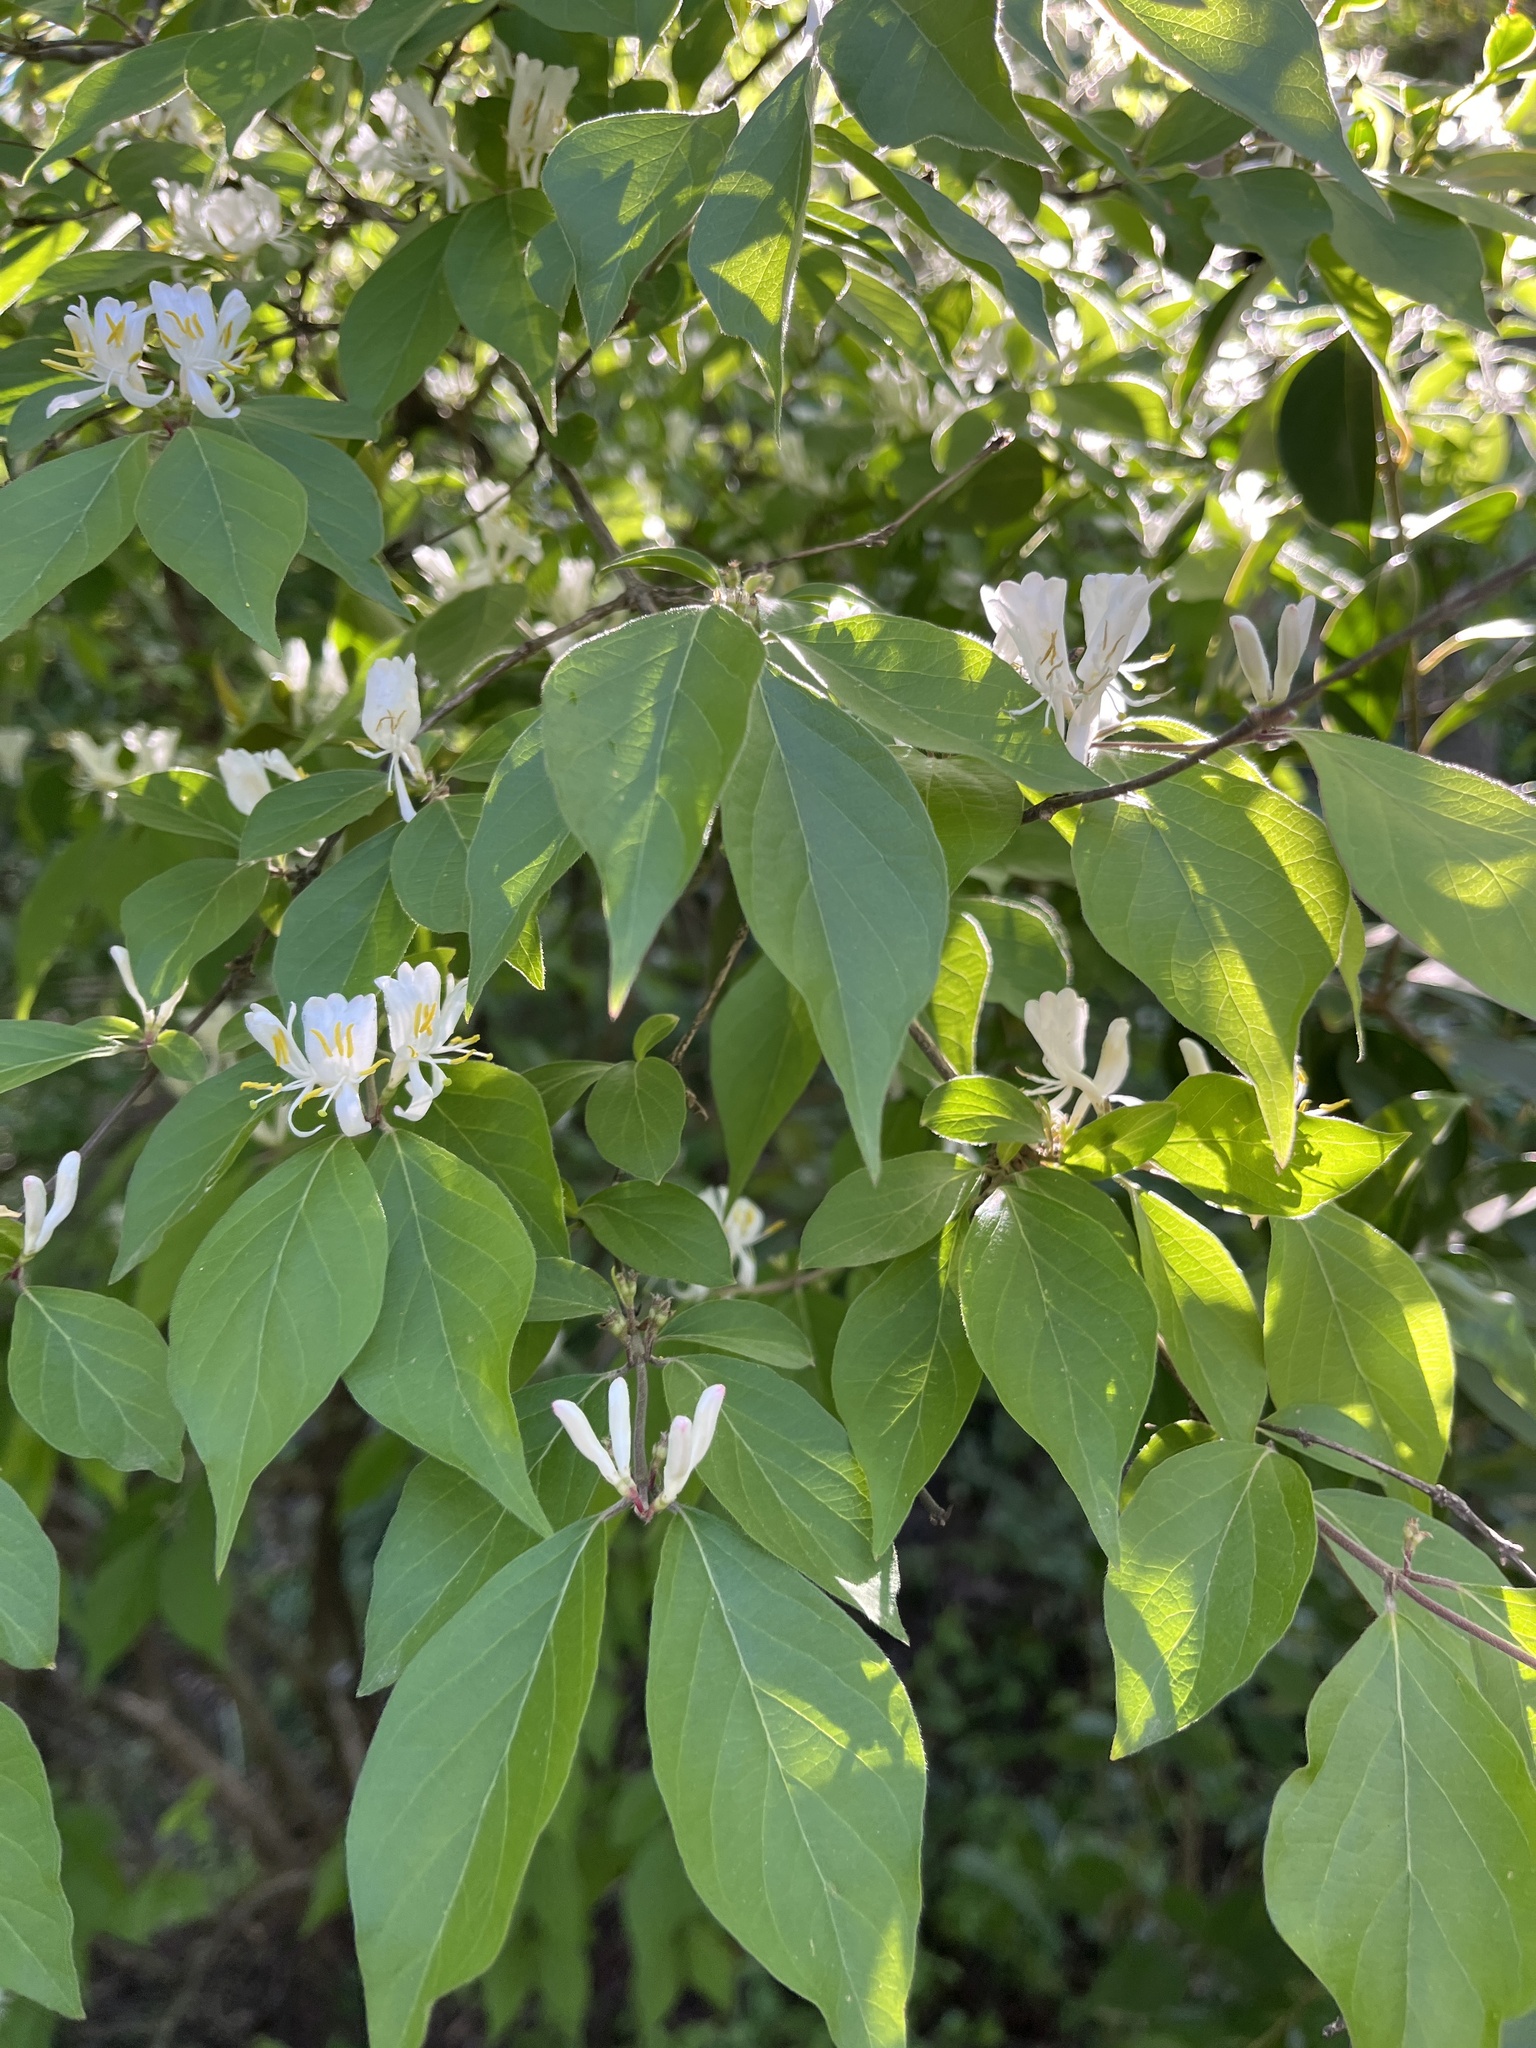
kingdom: Plantae
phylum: Tracheophyta
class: Magnoliopsida
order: Dipsacales
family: Caprifoliaceae
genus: Lonicera
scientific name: Lonicera maackii
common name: Amur honeysuckle
